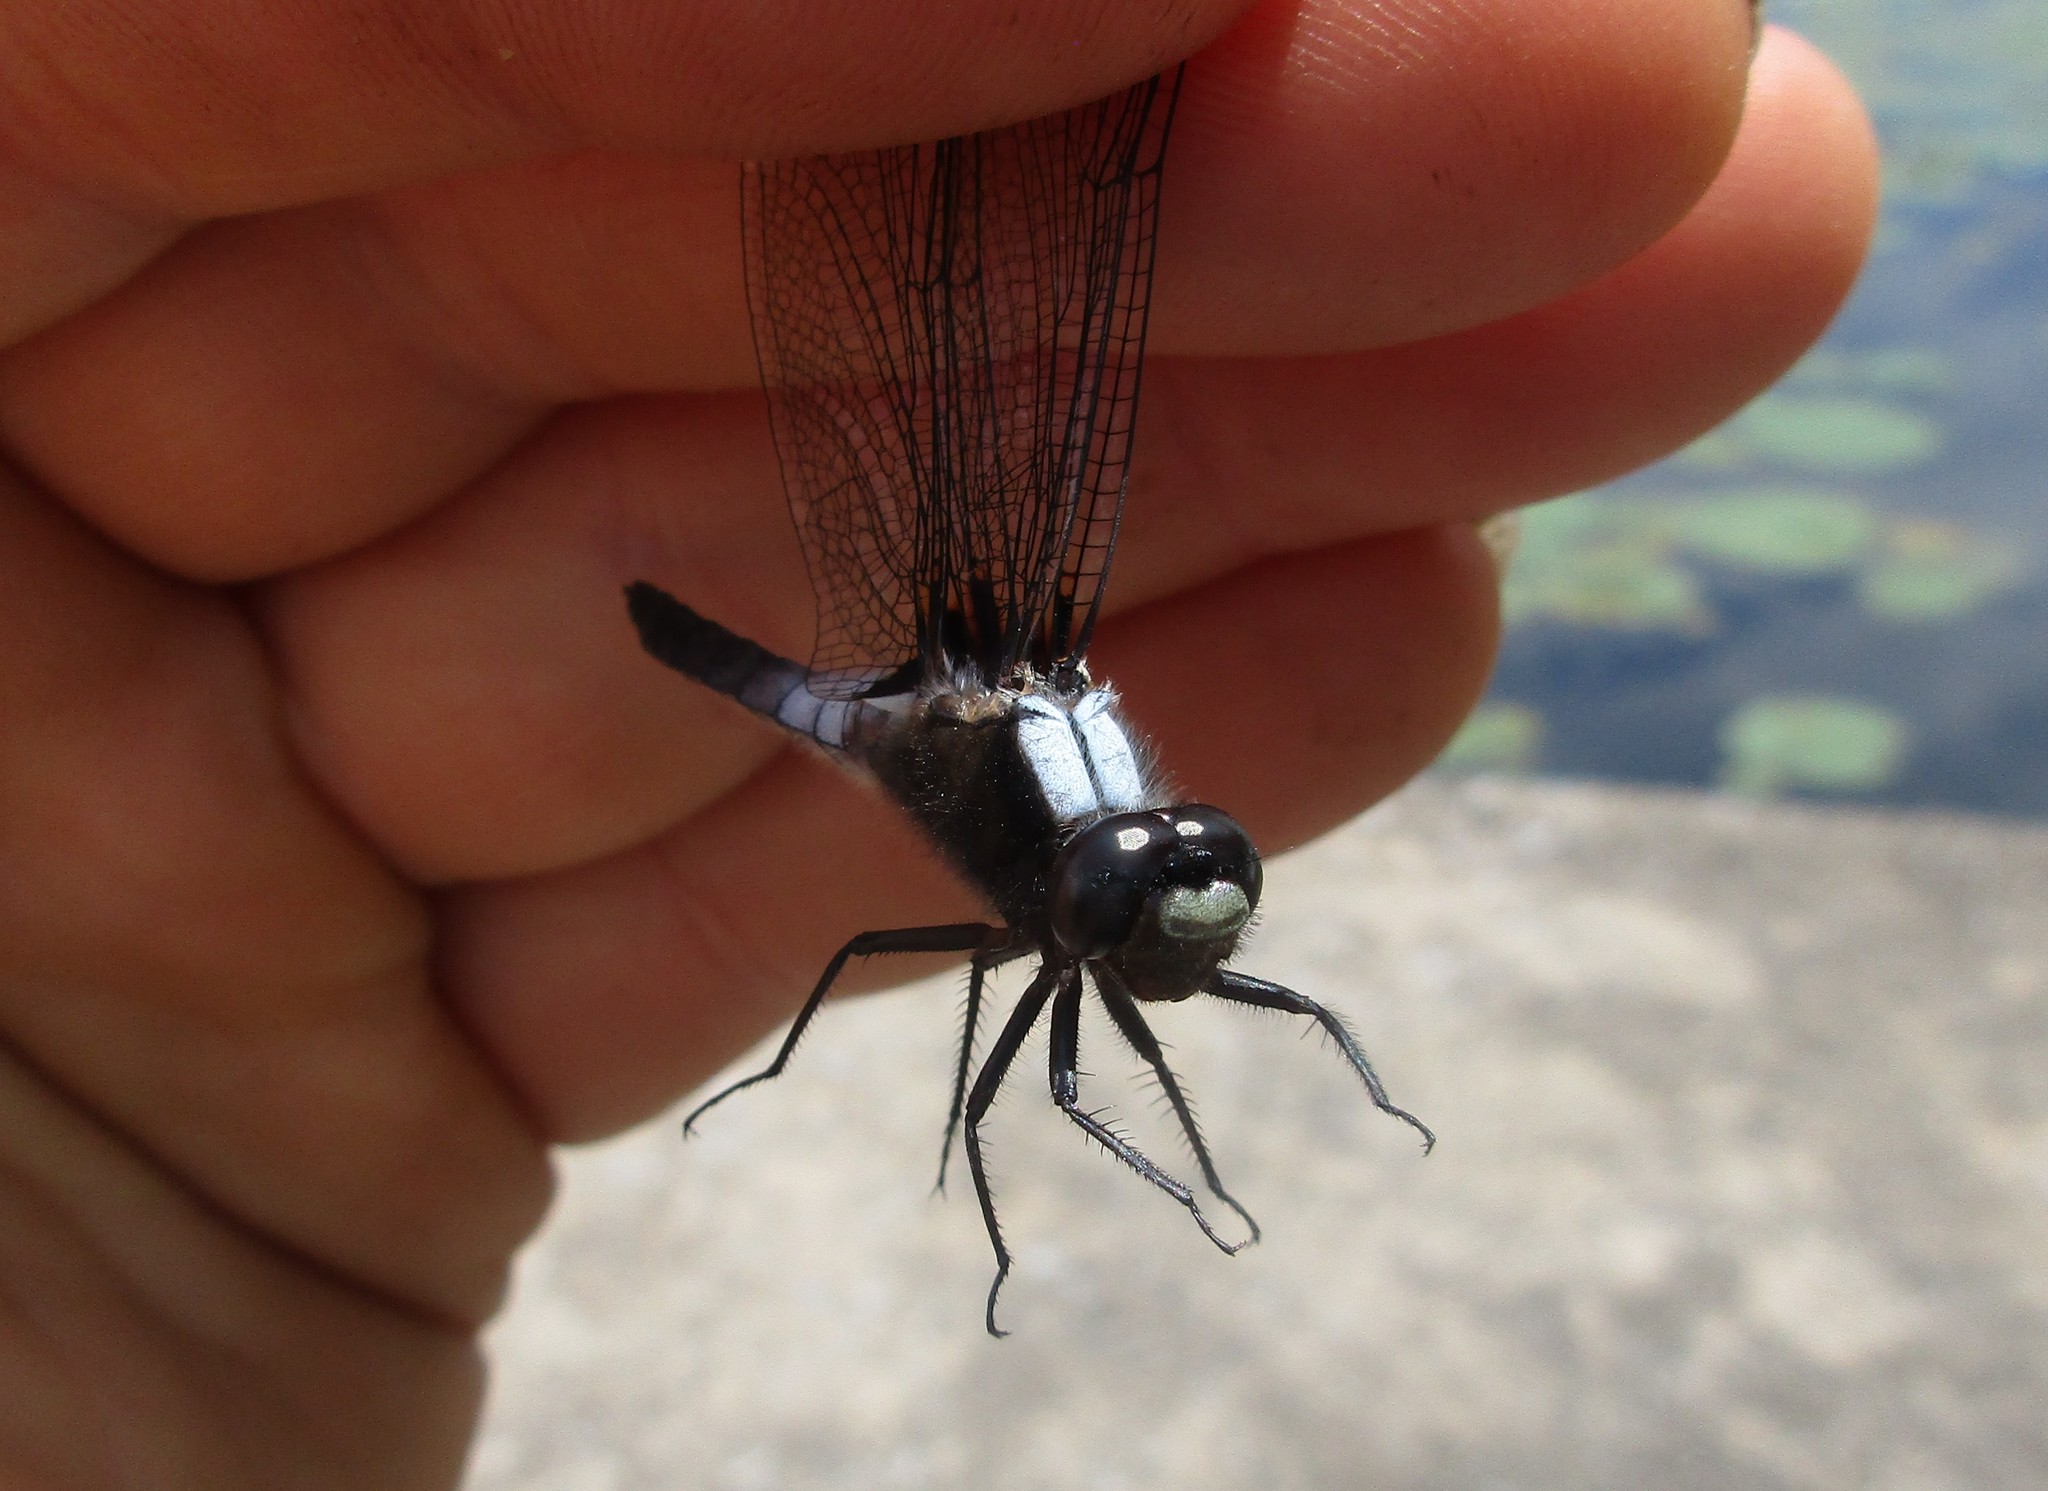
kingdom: Animalia
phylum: Arthropoda
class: Insecta
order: Odonata
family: Libellulidae
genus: Ladona
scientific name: Ladona julia
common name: Chalk-fronted corporal
